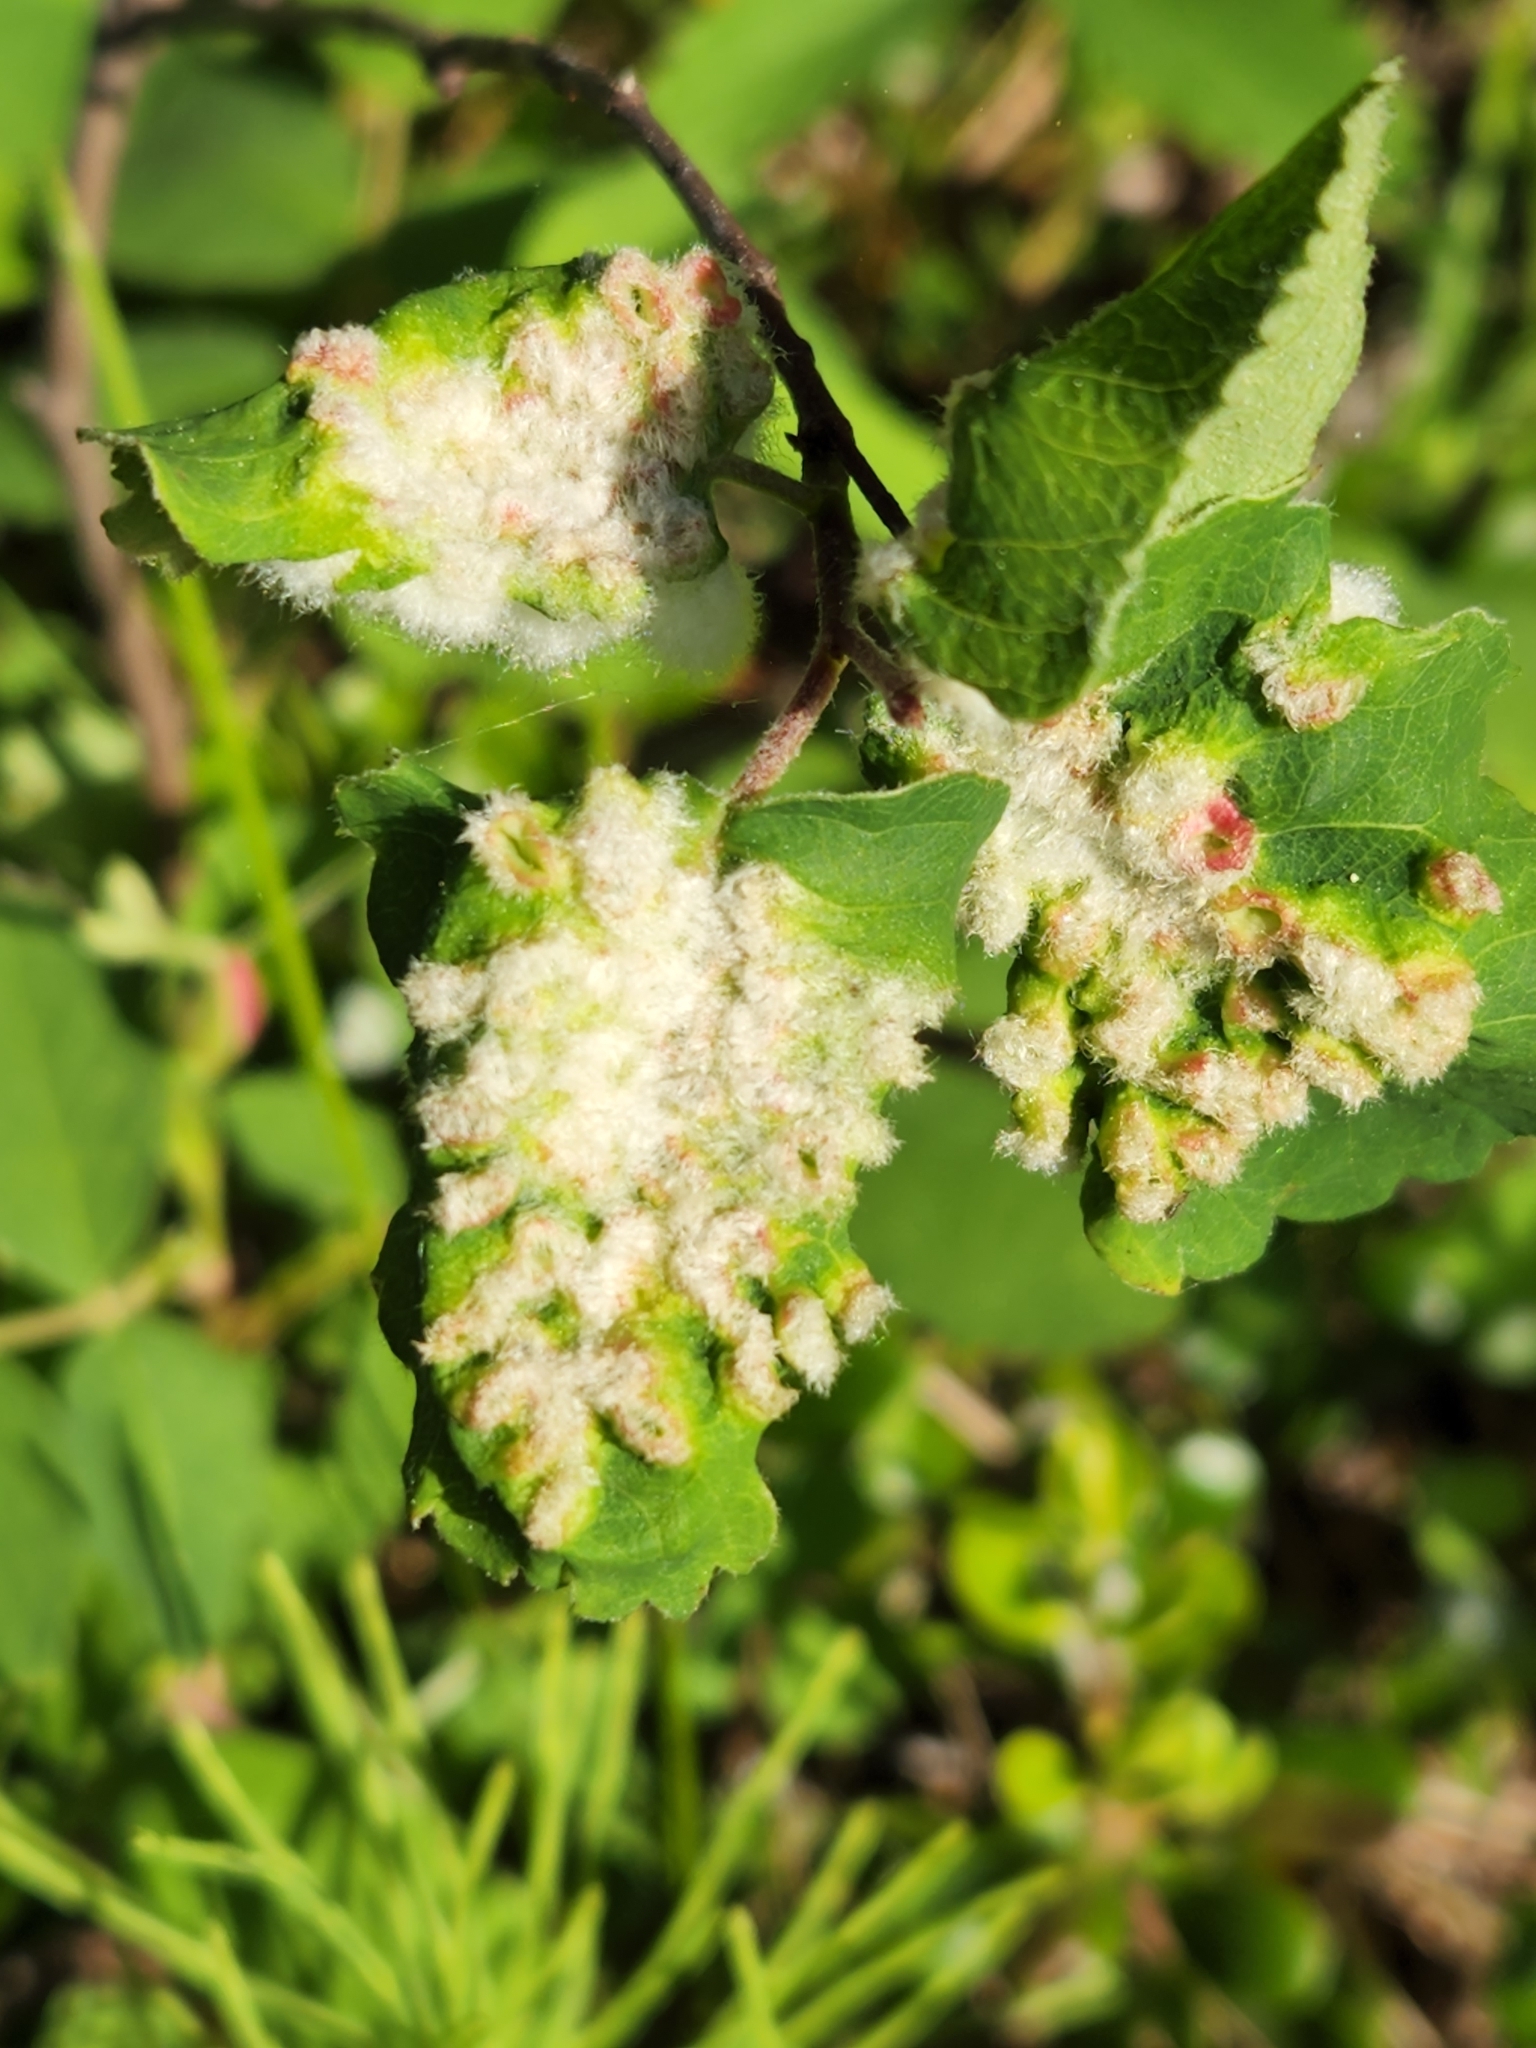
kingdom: Animalia
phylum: Arthropoda
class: Insecta
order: Diptera
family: Cecidomyiidae
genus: Blaesodiplosis
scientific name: Blaesodiplosis canadensis
